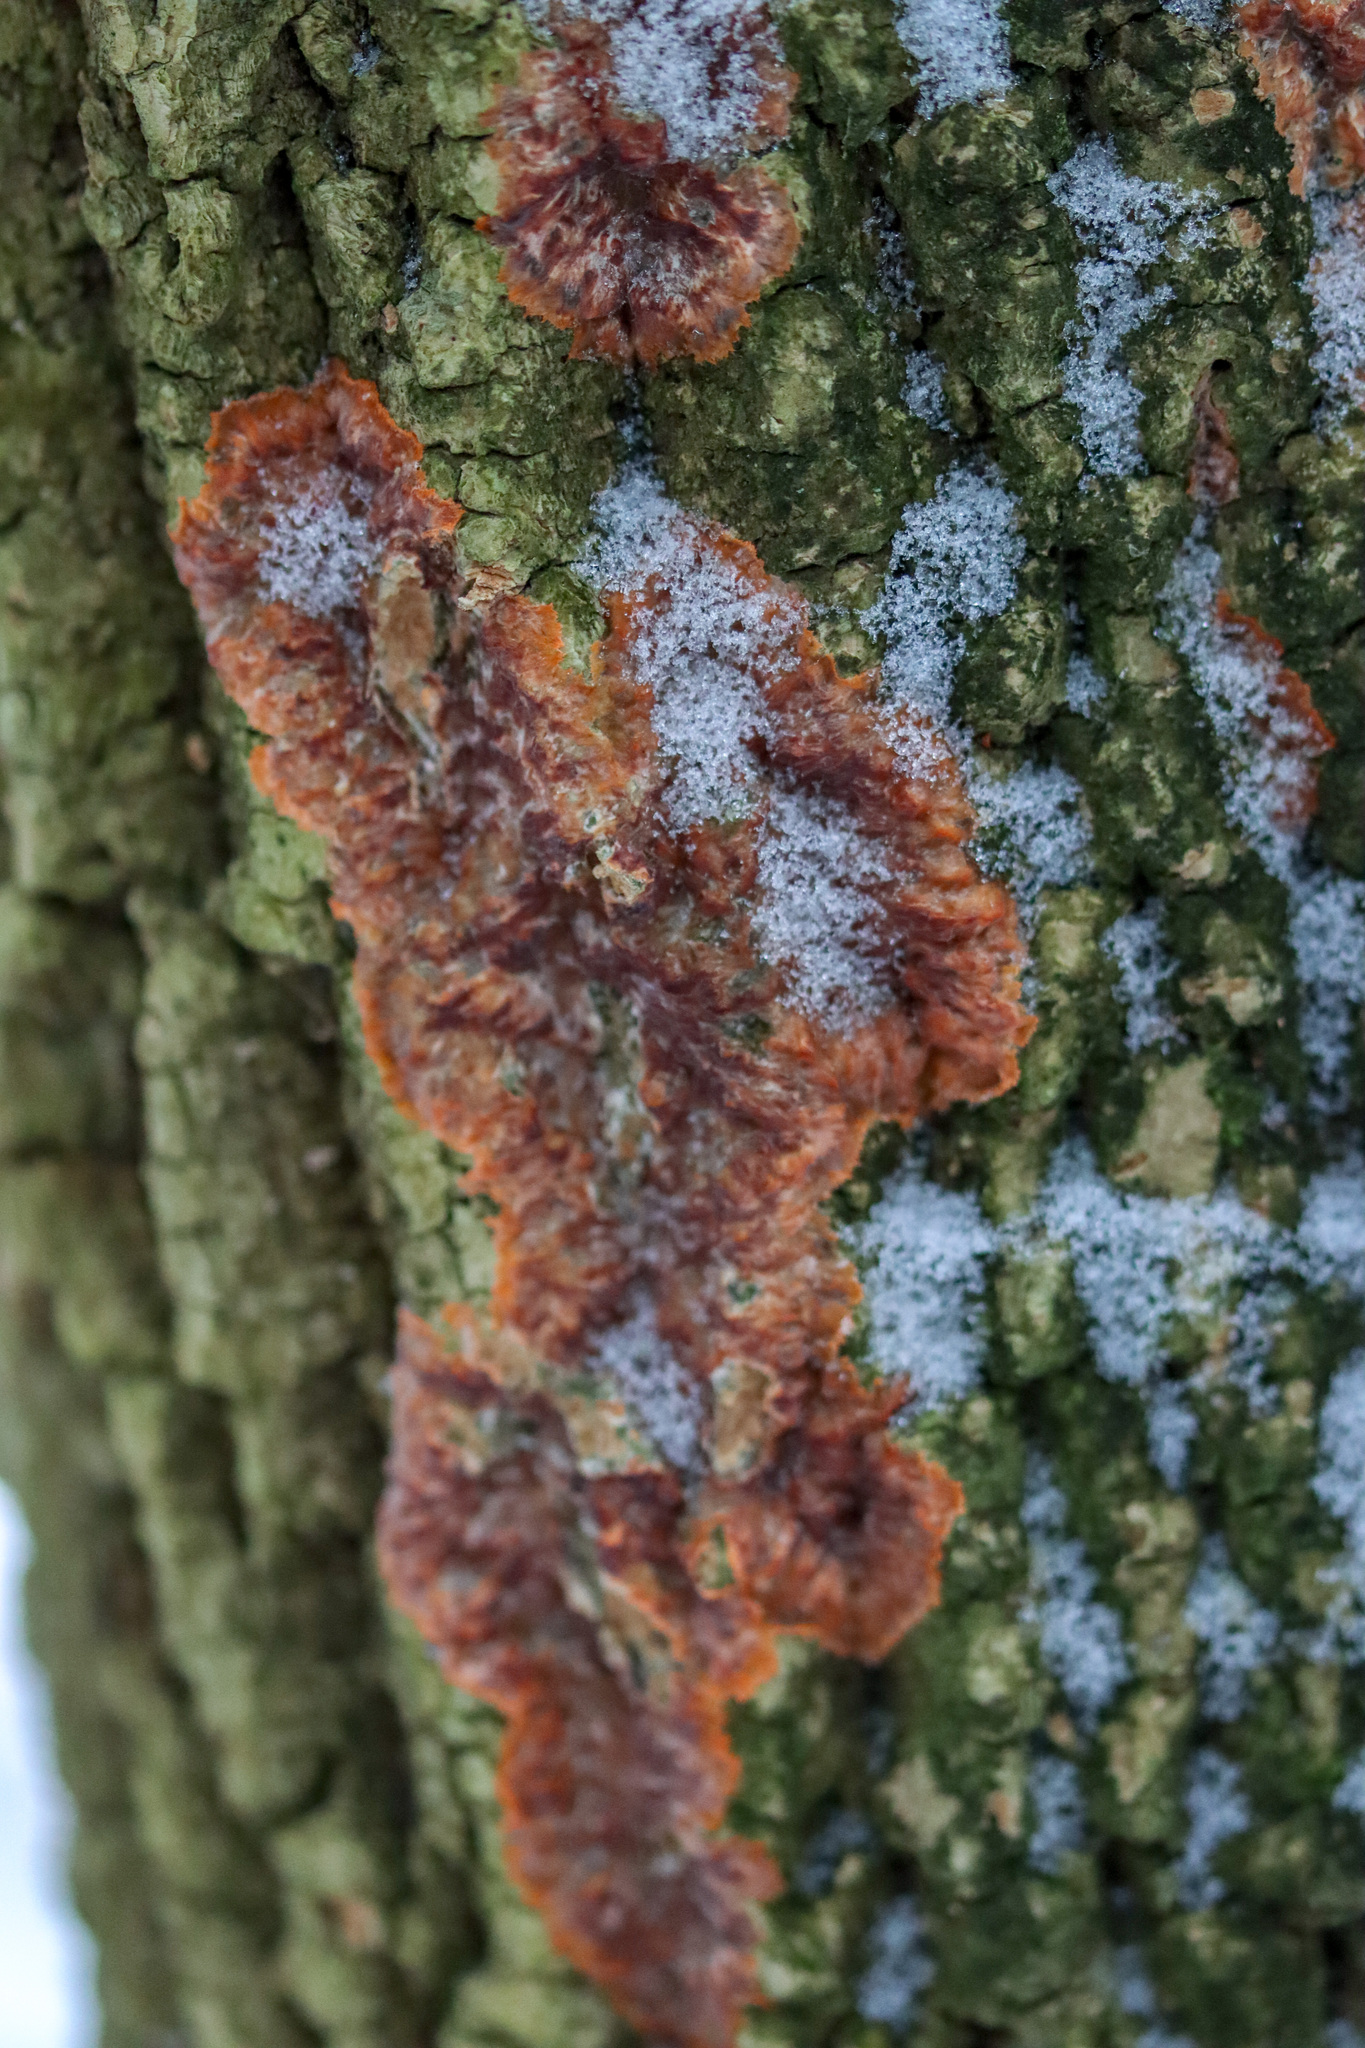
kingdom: Fungi
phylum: Basidiomycota
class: Agaricomycetes
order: Polyporales
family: Meruliaceae
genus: Phlebia
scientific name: Phlebia radiata
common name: Wrinkled crust
